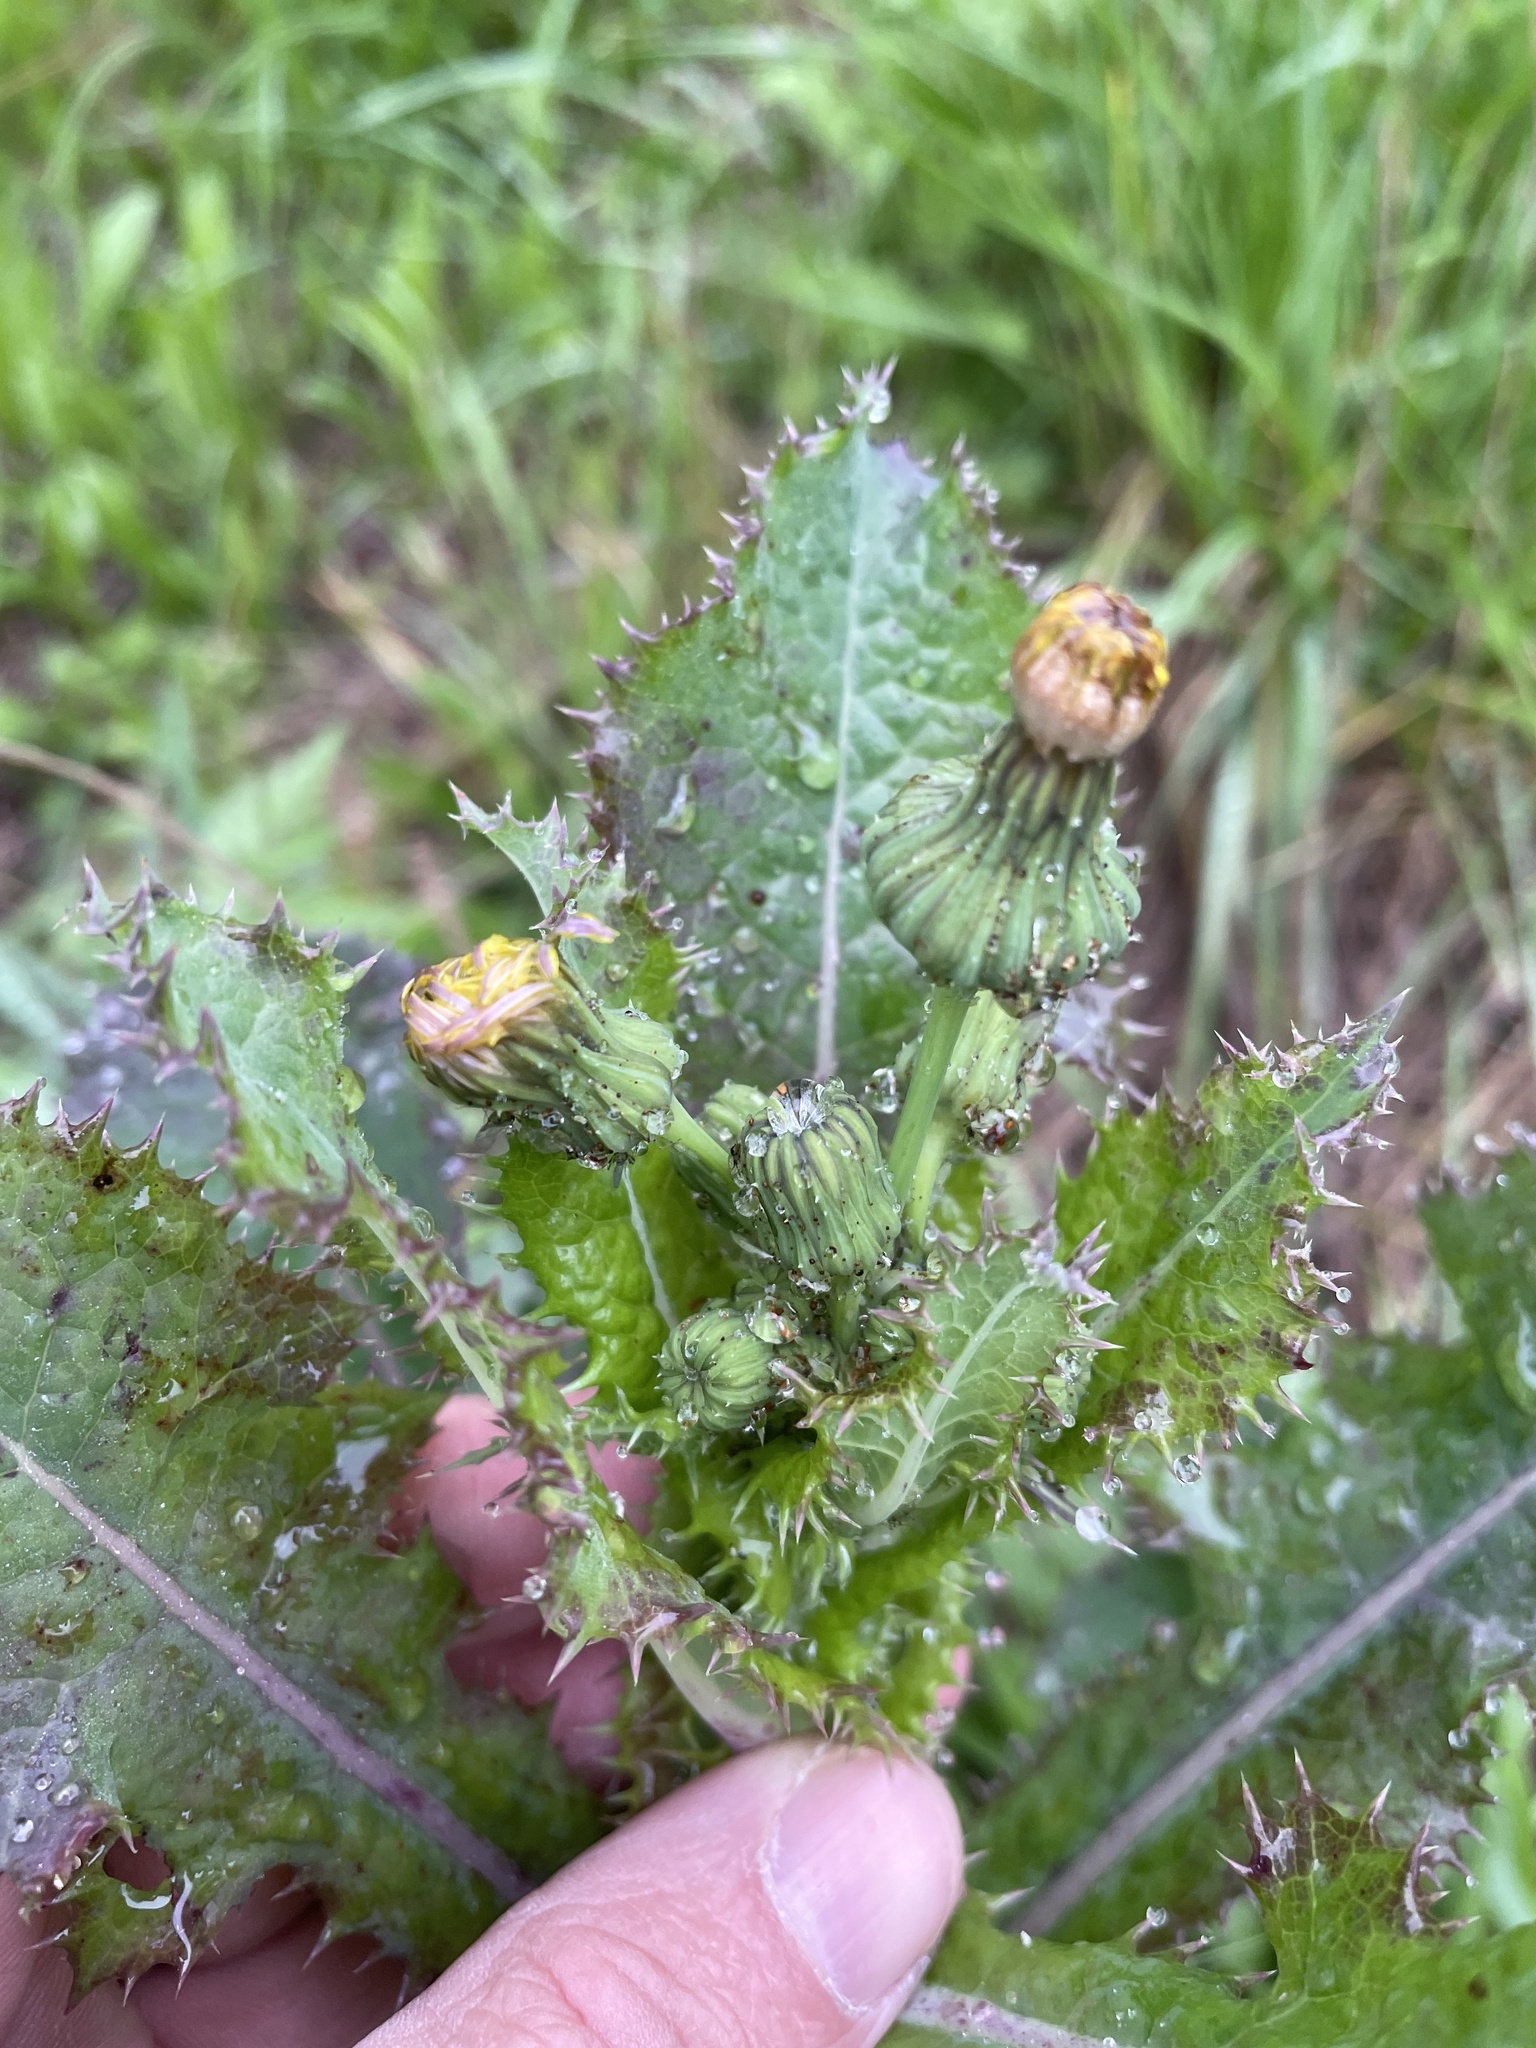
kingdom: Plantae
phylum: Tracheophyta
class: Magnoliopsida
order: Asterales
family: Asteraceae
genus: Sonchus
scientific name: Sonchus asper
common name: Prickly sow-thistle
